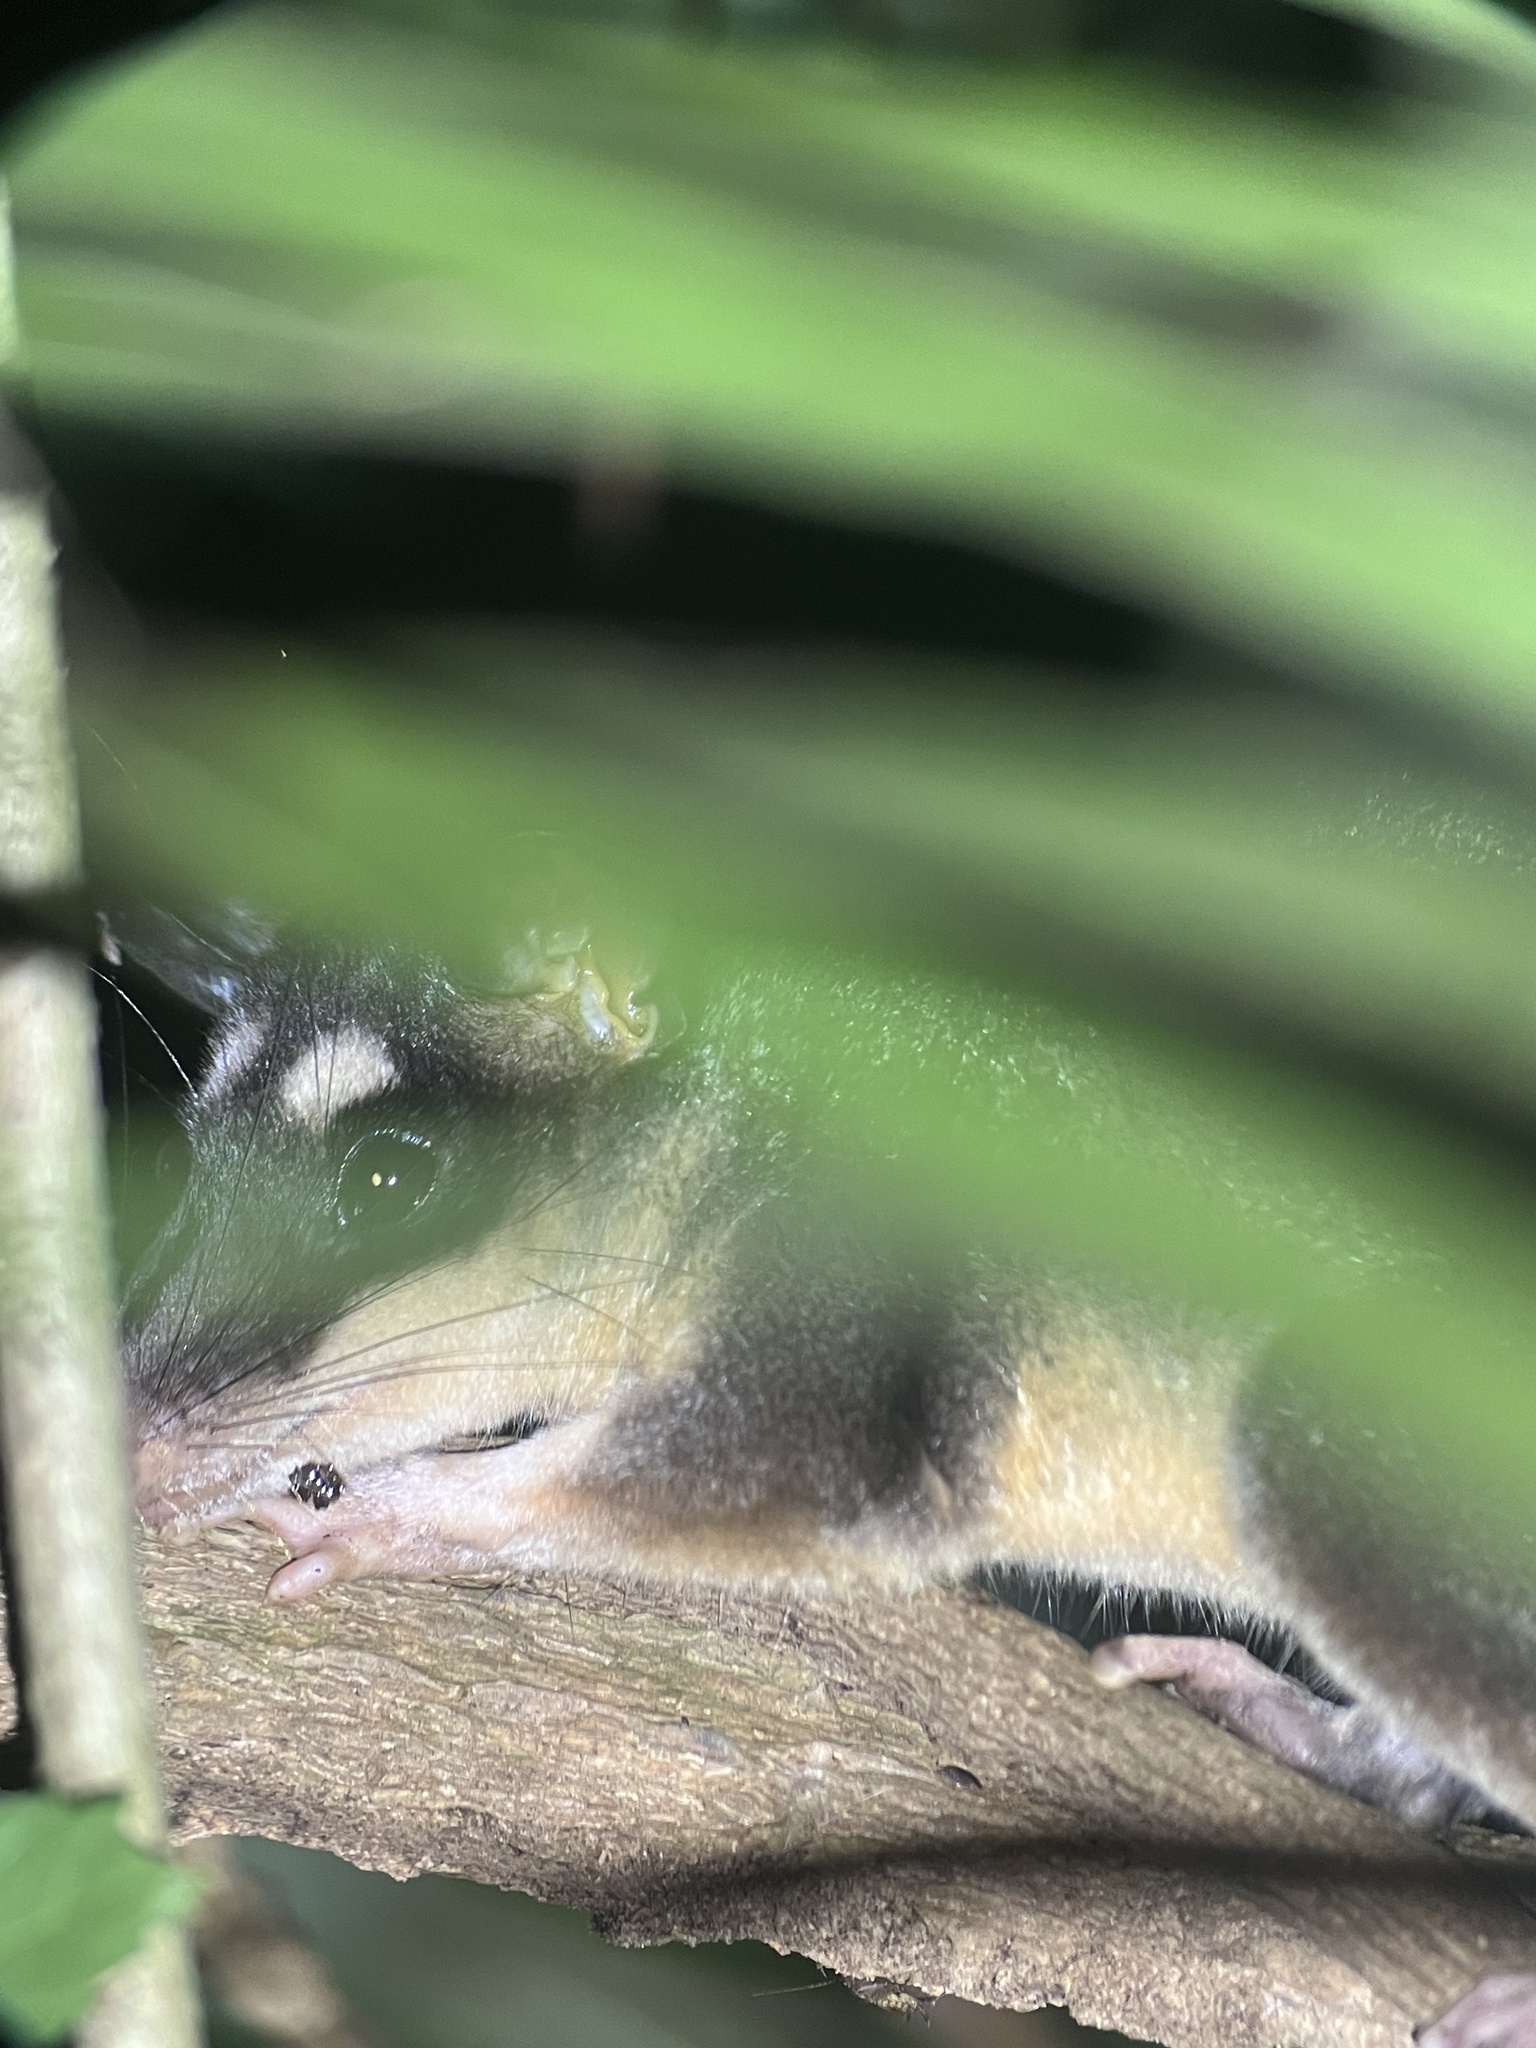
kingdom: Animalia
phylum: Chordata
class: Mammalia
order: Didelphimorphia
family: Didelphidae
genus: Philander
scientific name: Philander
